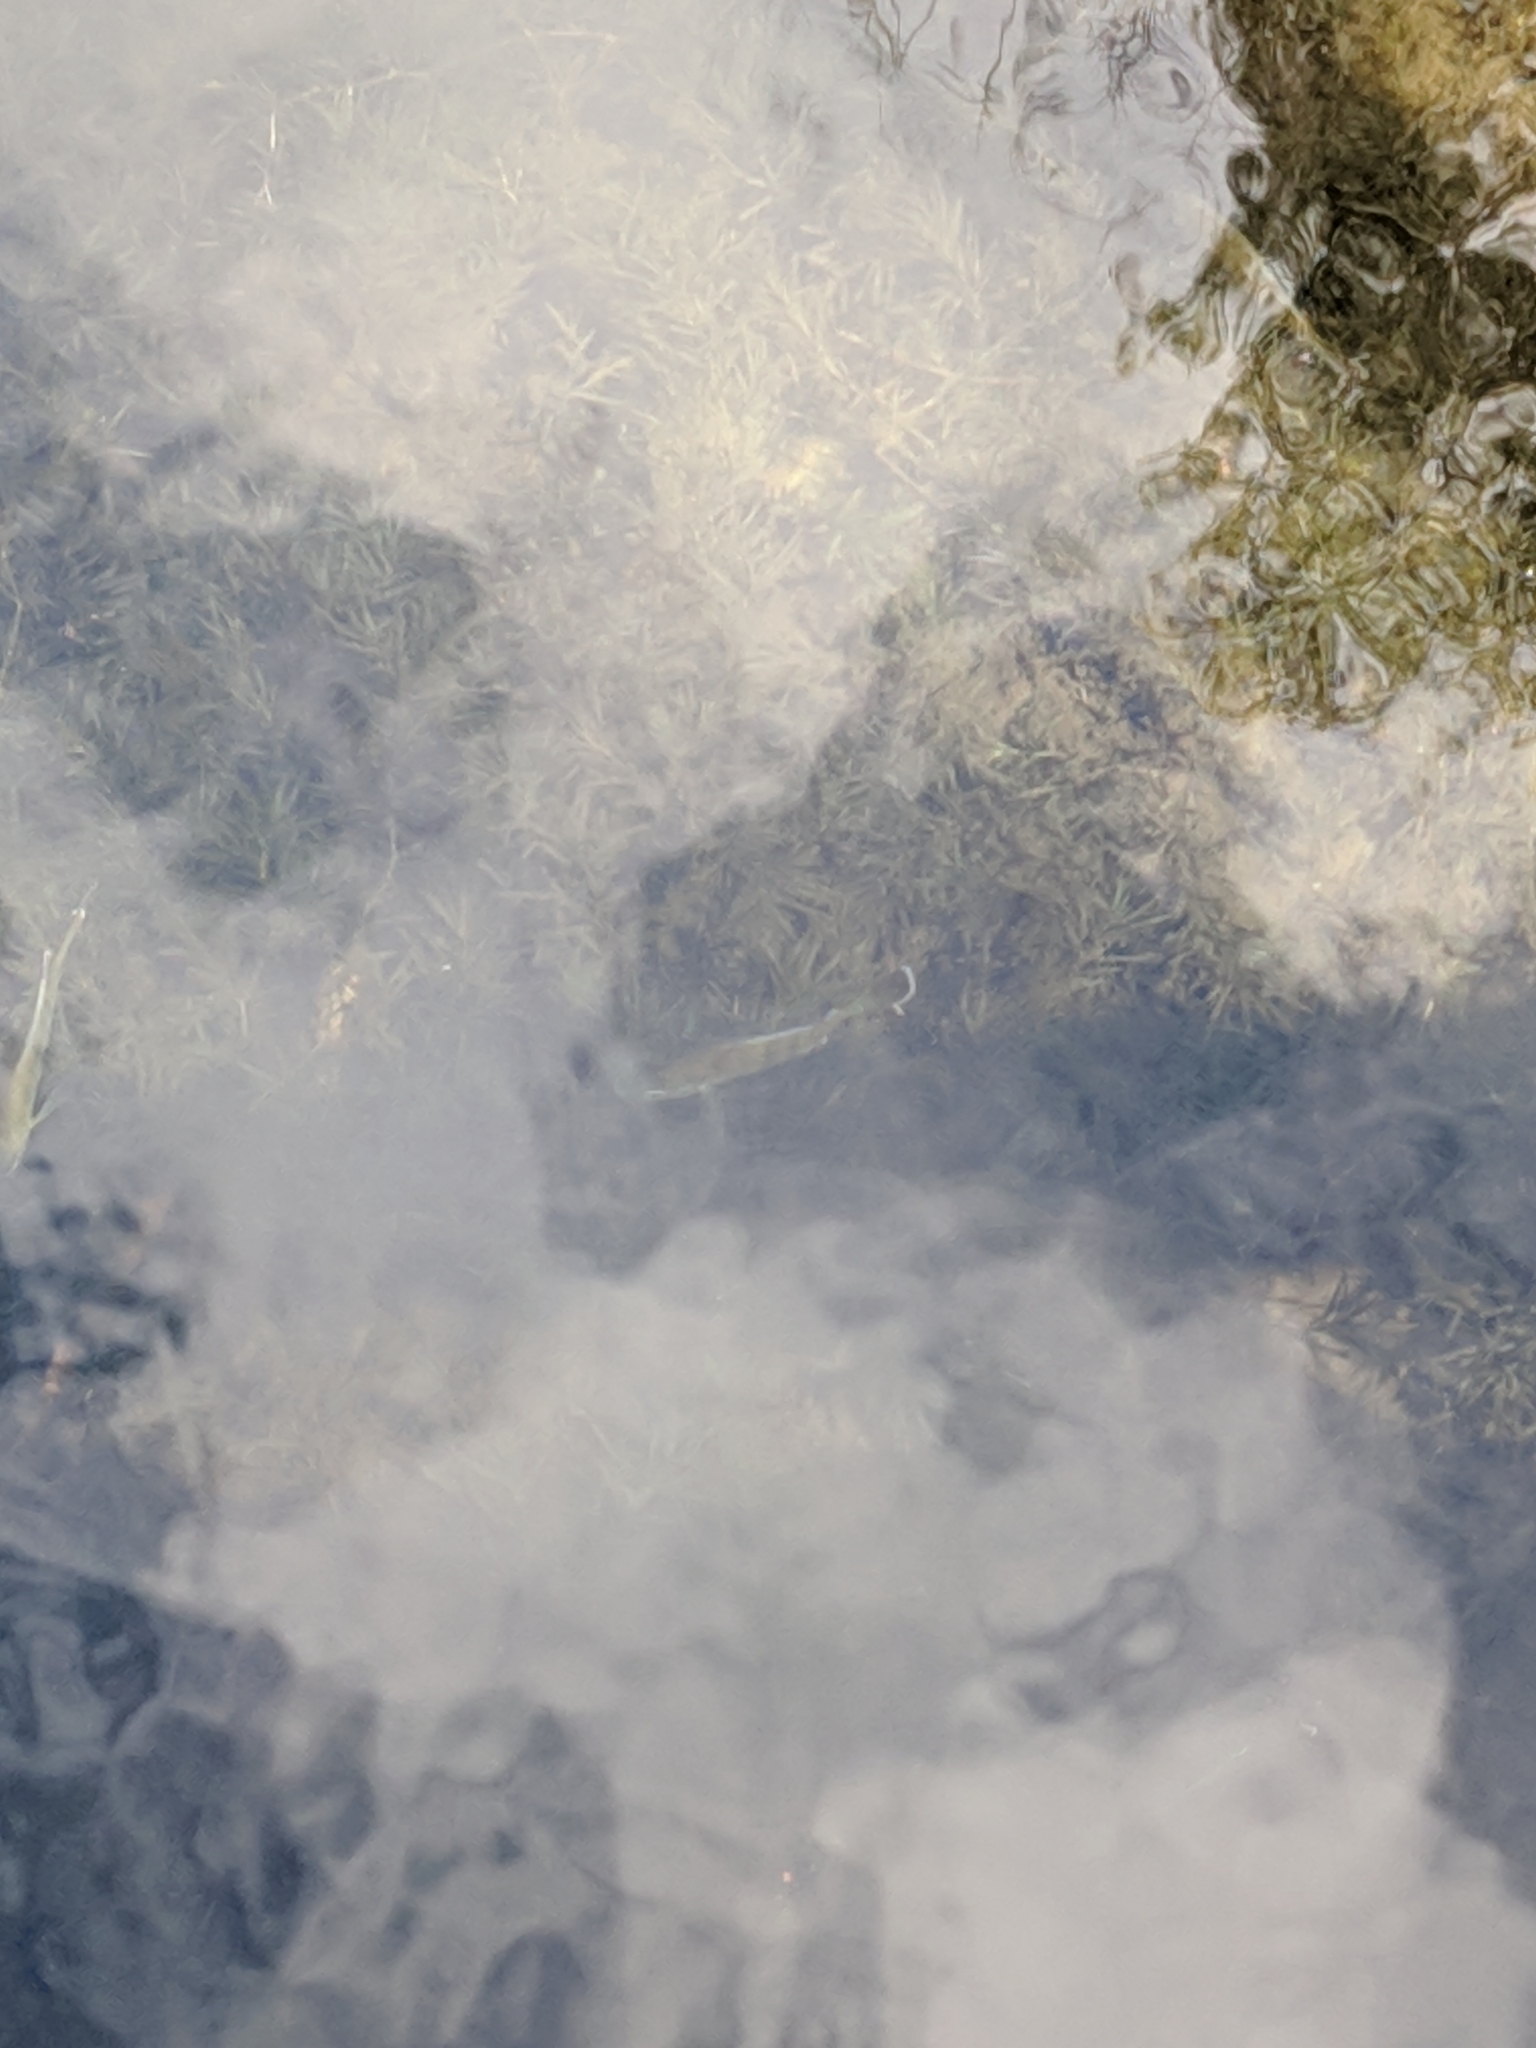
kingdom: Animalia
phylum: Chordata
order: Perciformes
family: Centrarchidae
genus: Lepomis
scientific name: Lepomis
